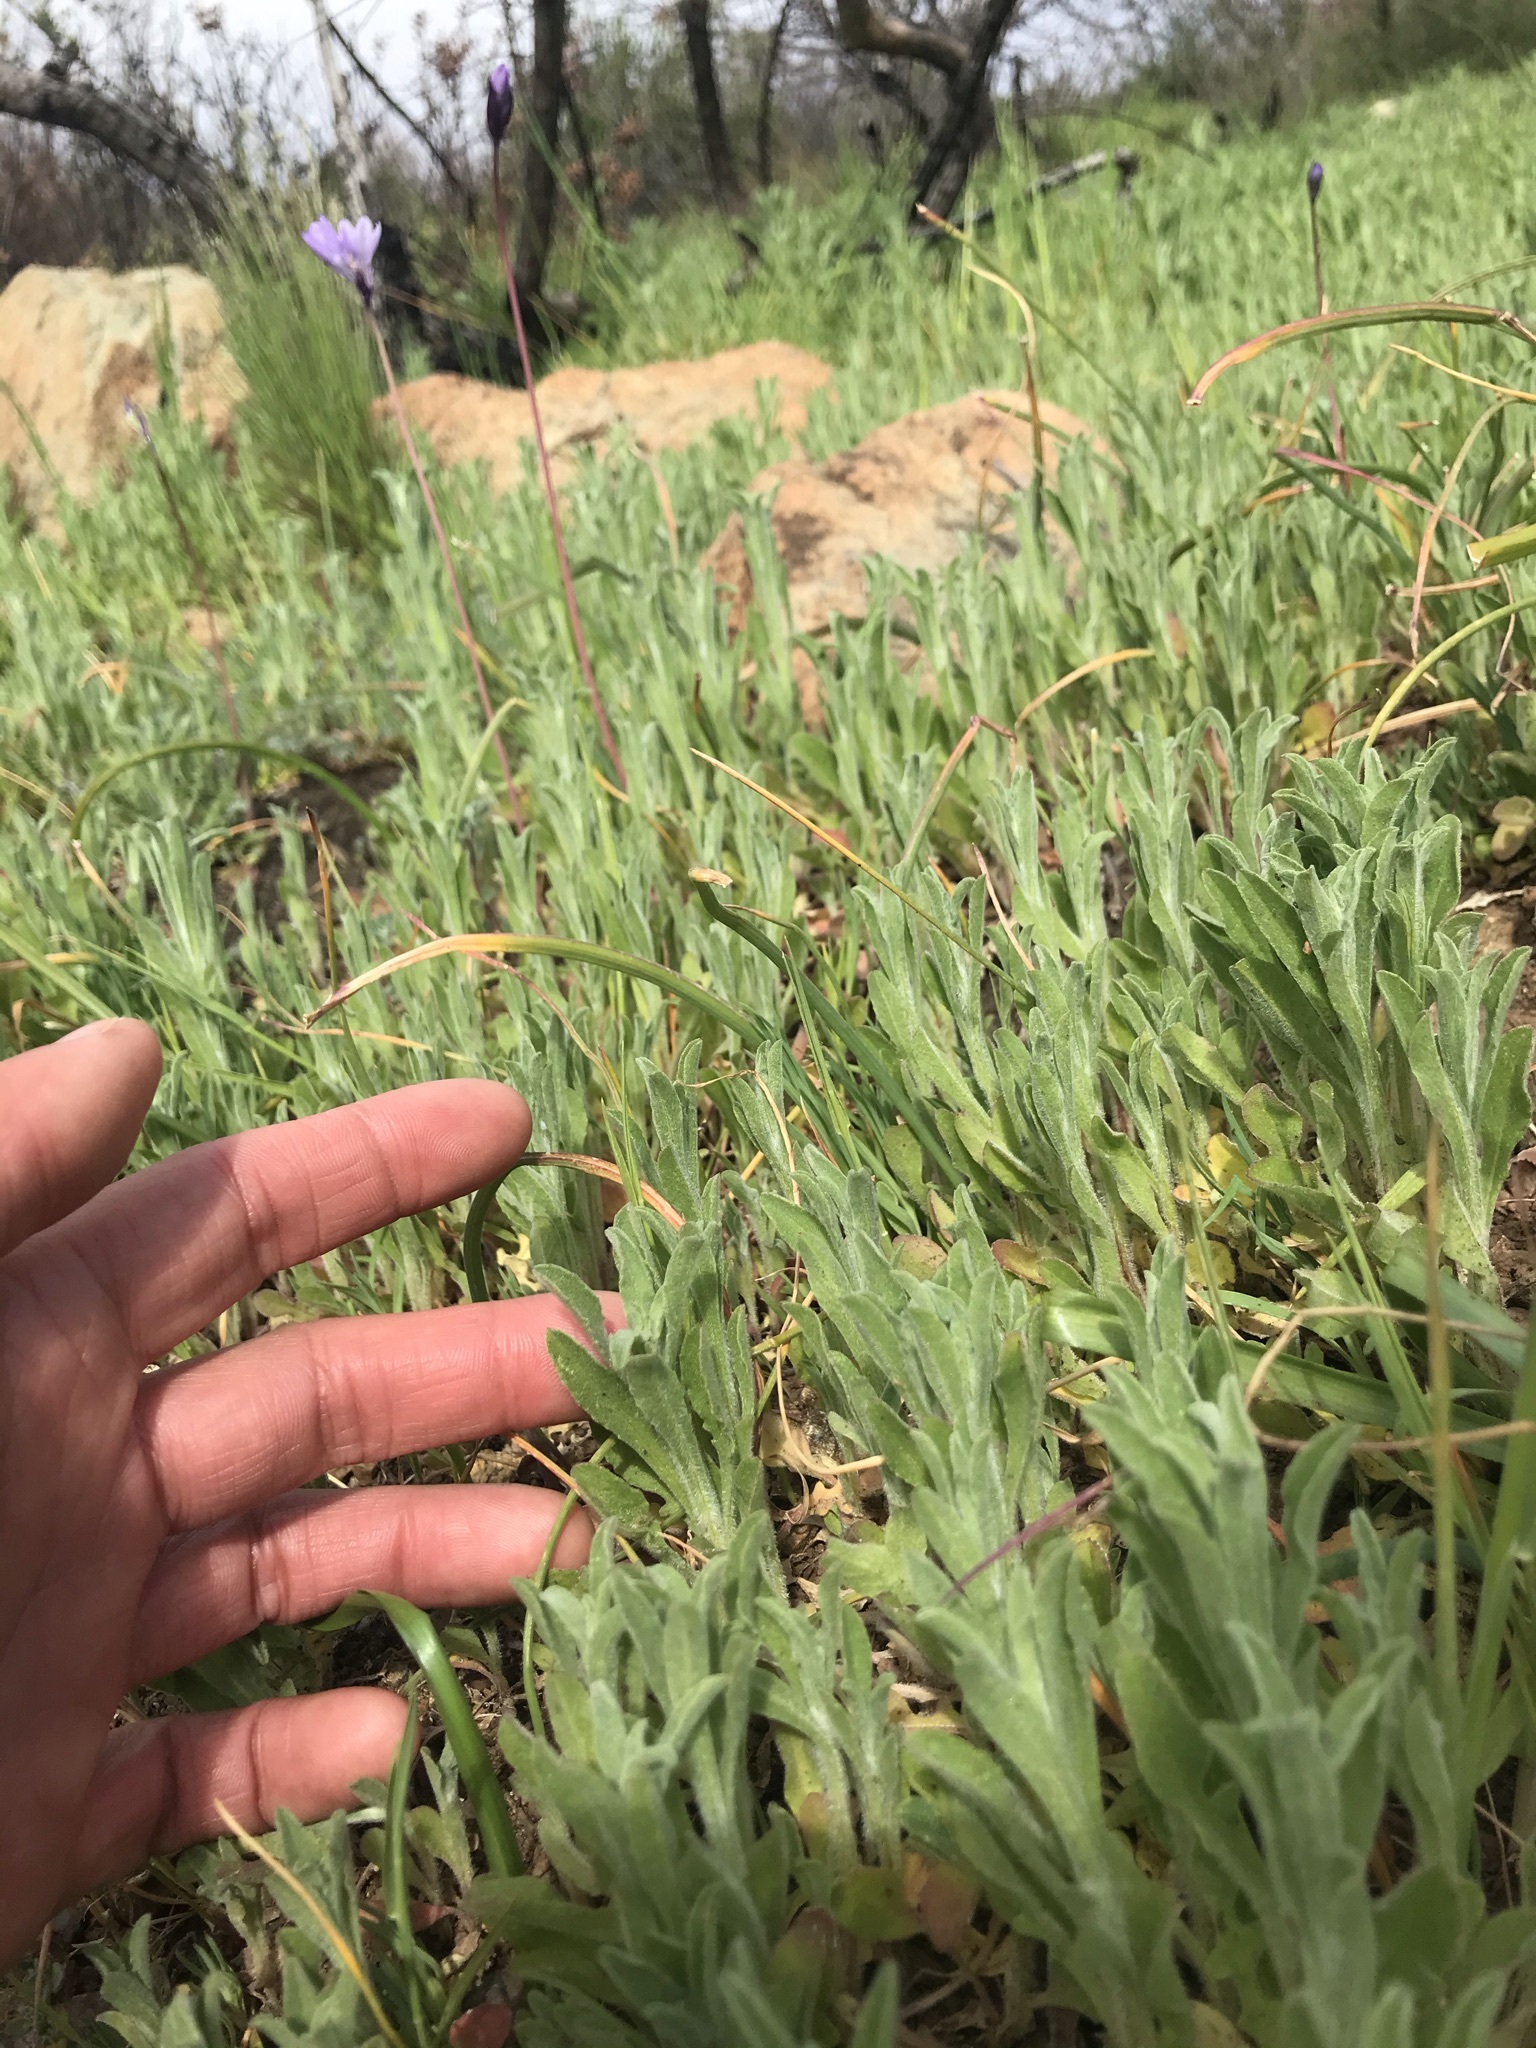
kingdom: Plantae
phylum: Tracheophyta
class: Magnoliopsida
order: Asterales
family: Asteraceae
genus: Centaurea
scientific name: Centaurea melitensis
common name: Maltese star-thistle
